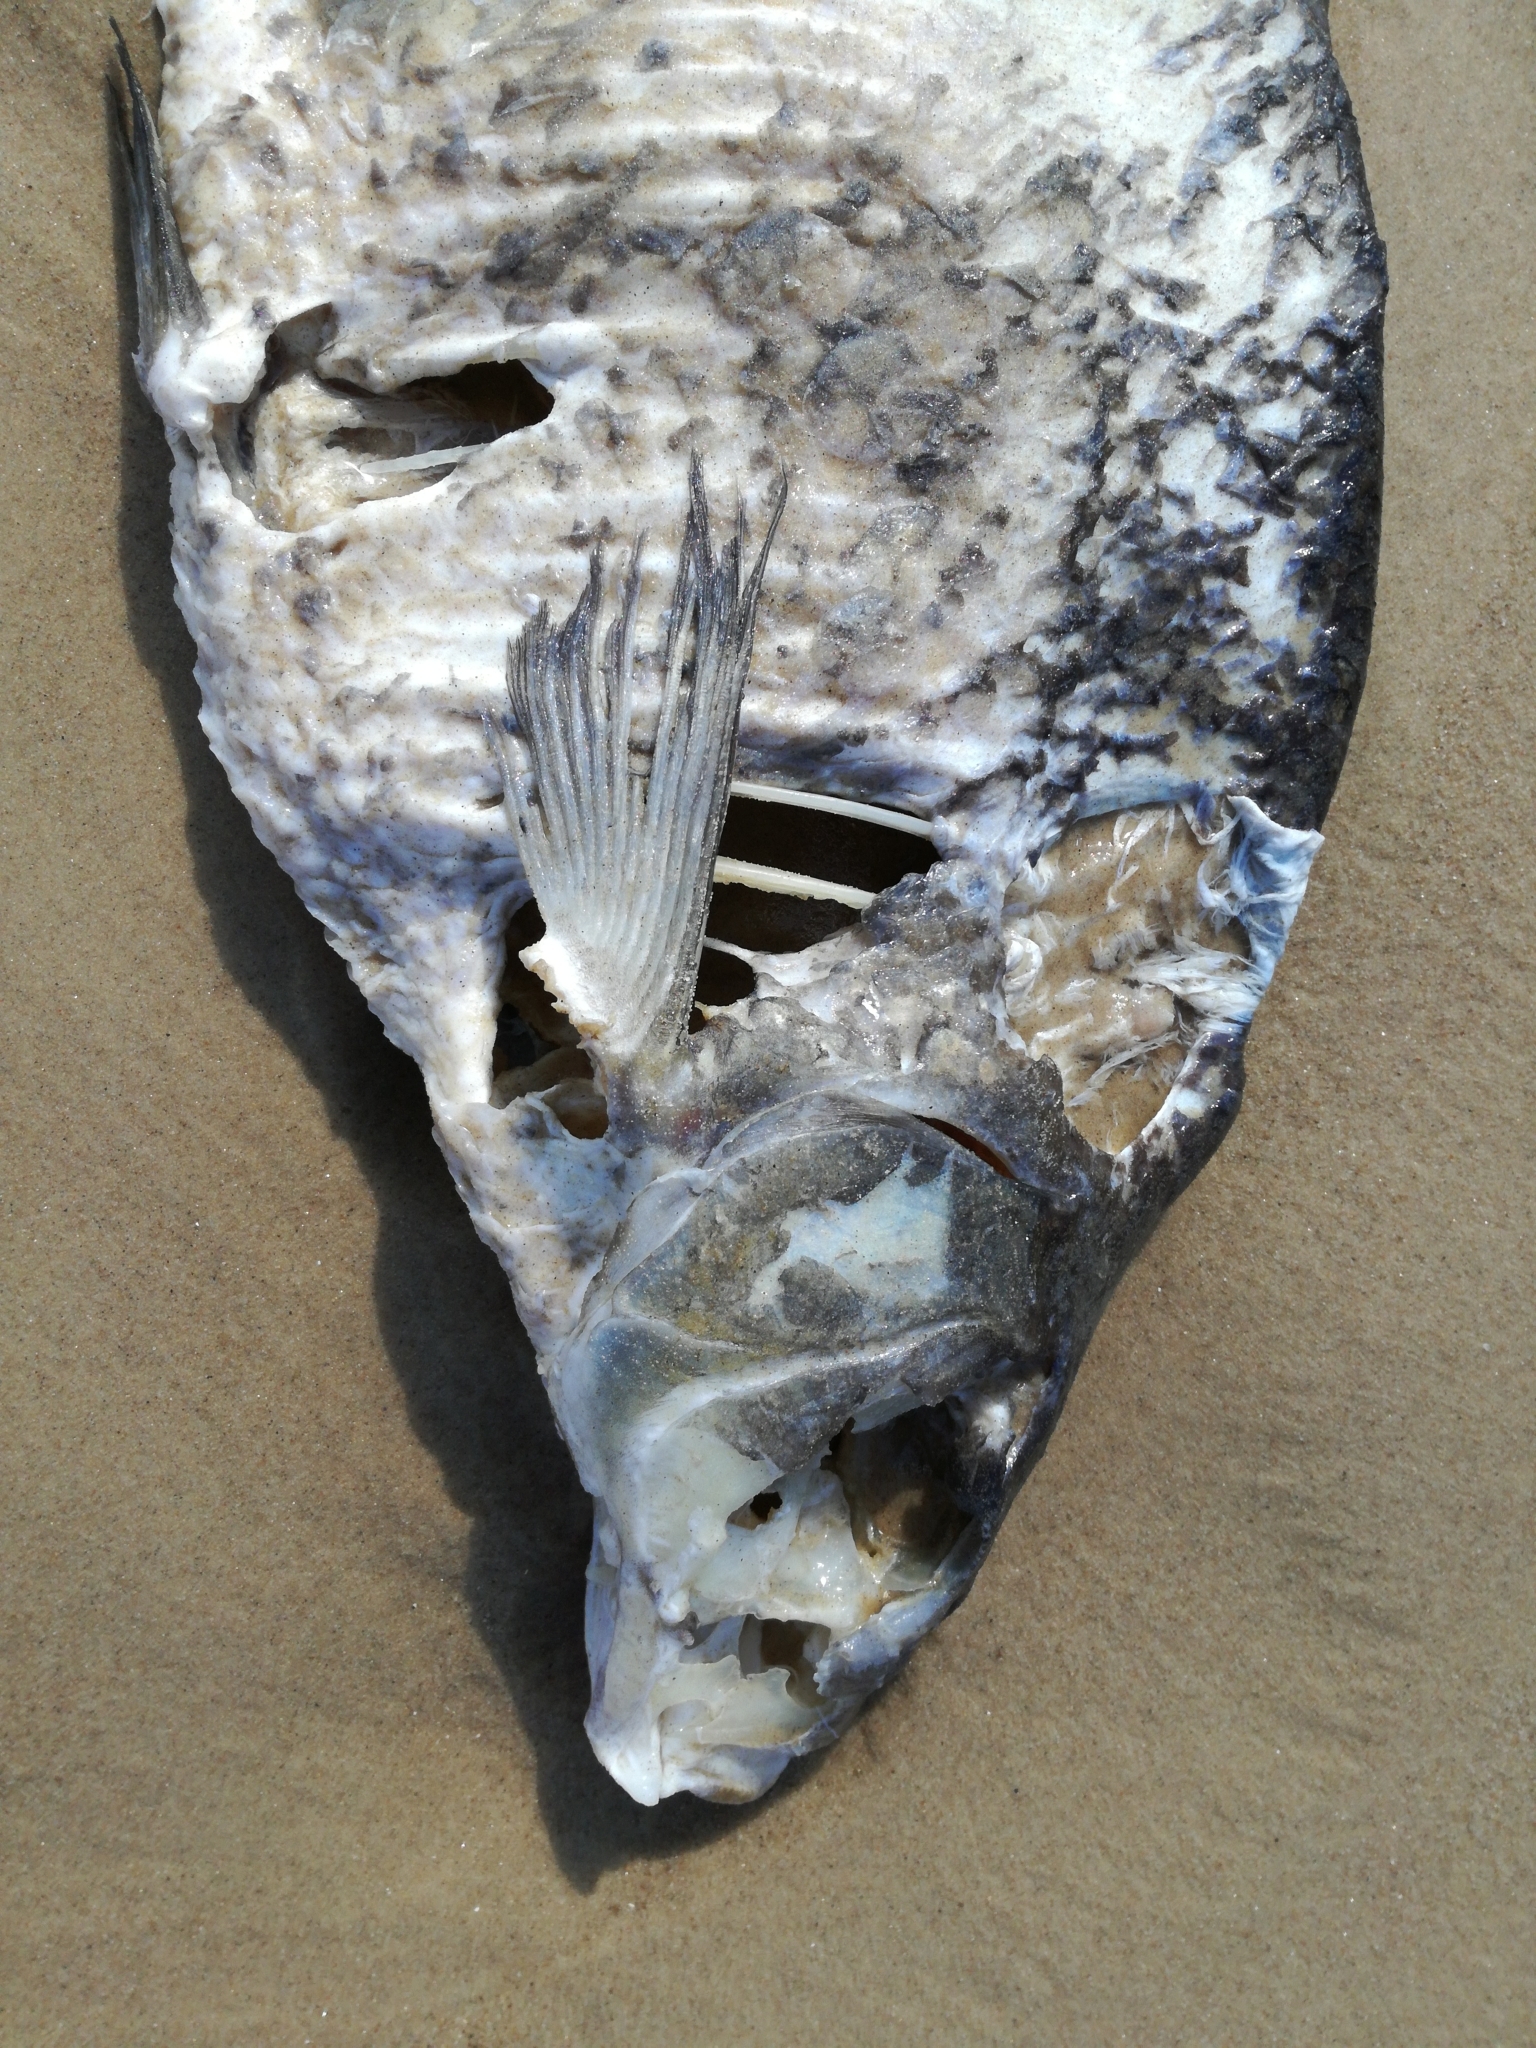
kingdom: Animalia
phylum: Chordata
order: Cypriniformes
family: Cyprinidae
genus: Abramis
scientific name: Abramis brama
